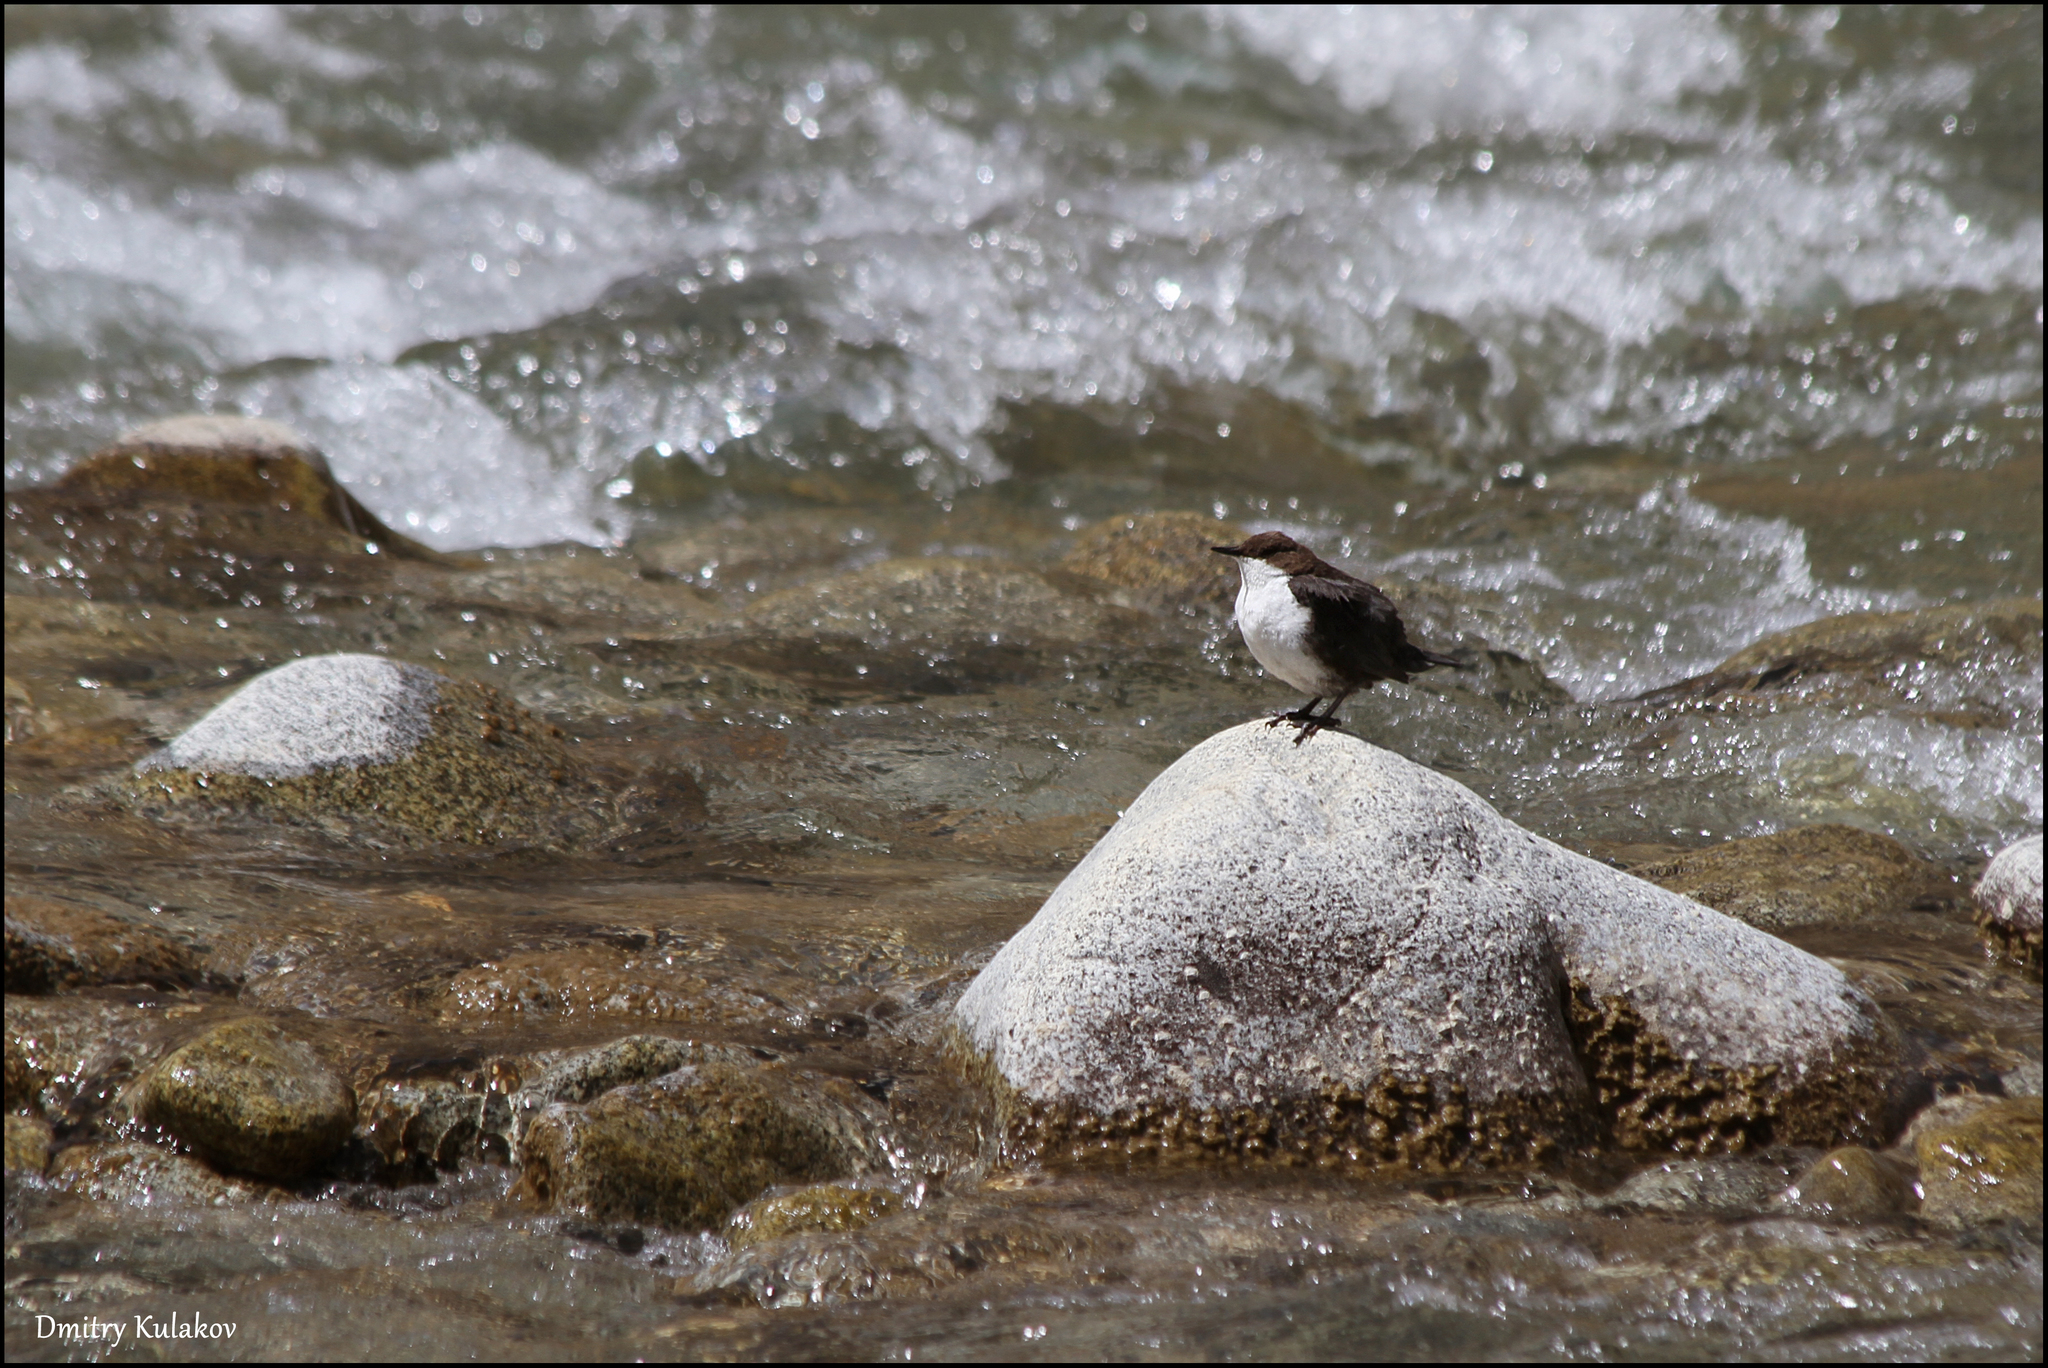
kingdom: Animalia
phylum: Chordata
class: Aves
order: Passeriformes
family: Cinclidae
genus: Cinclus
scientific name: Cinclus cinclus
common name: White-throated dipper
